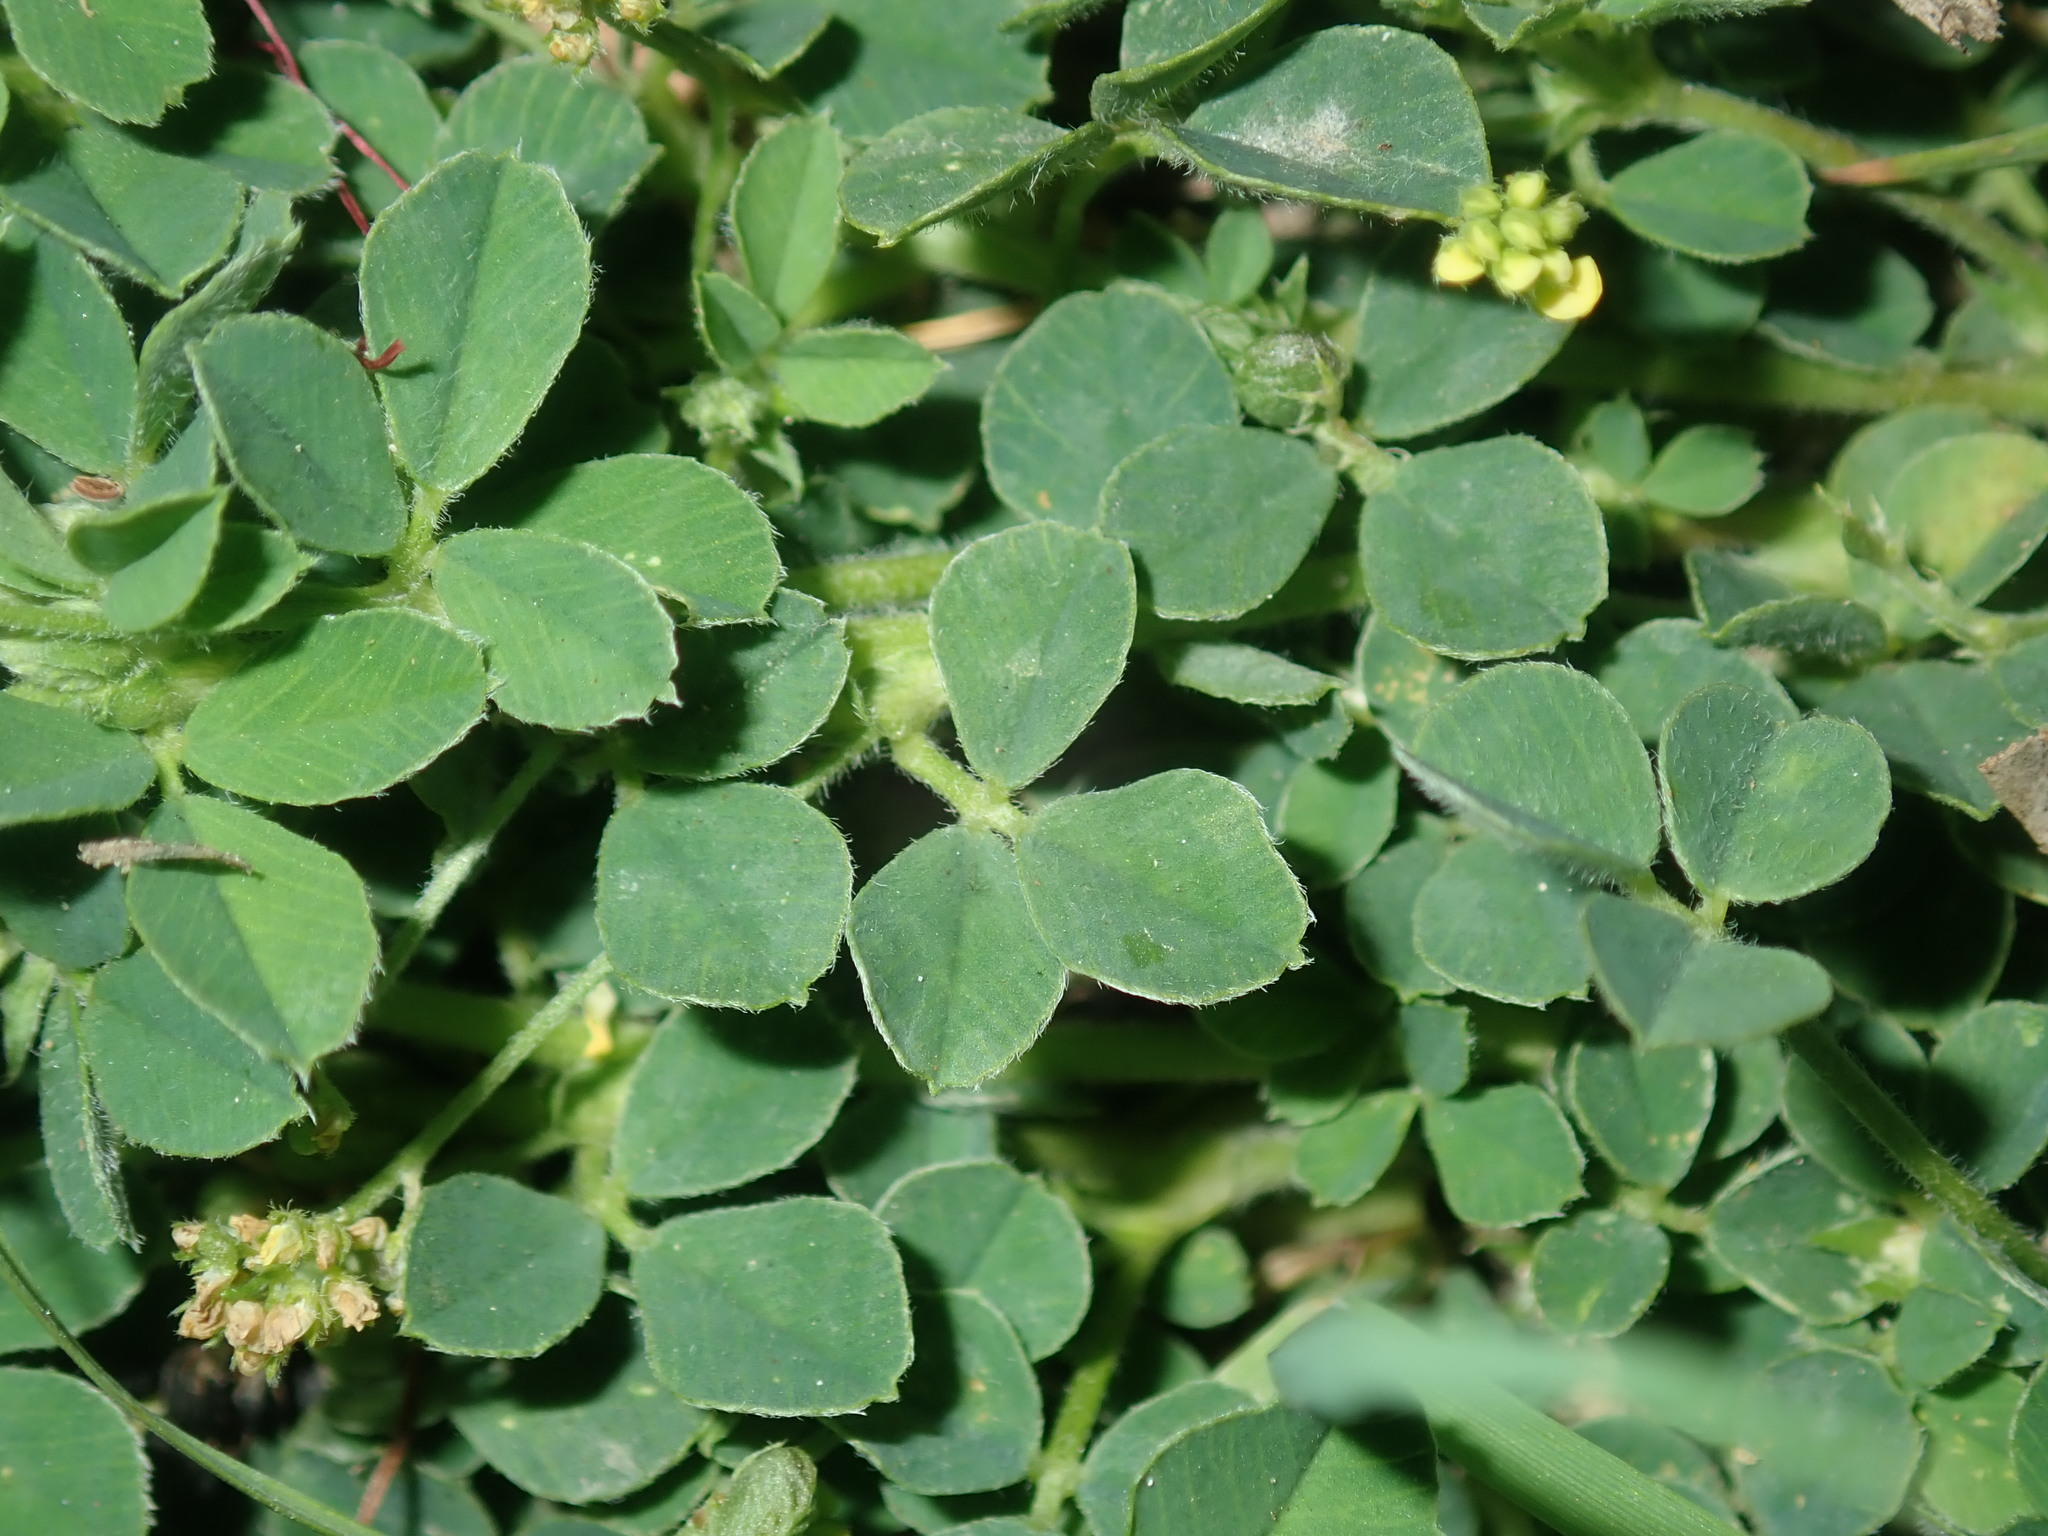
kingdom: Plantae
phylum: Tracheophyta
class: Magnoliopsida
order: Fabales
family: Fabaceae
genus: Medicago
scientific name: Medicago lupulina
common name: Black medick
